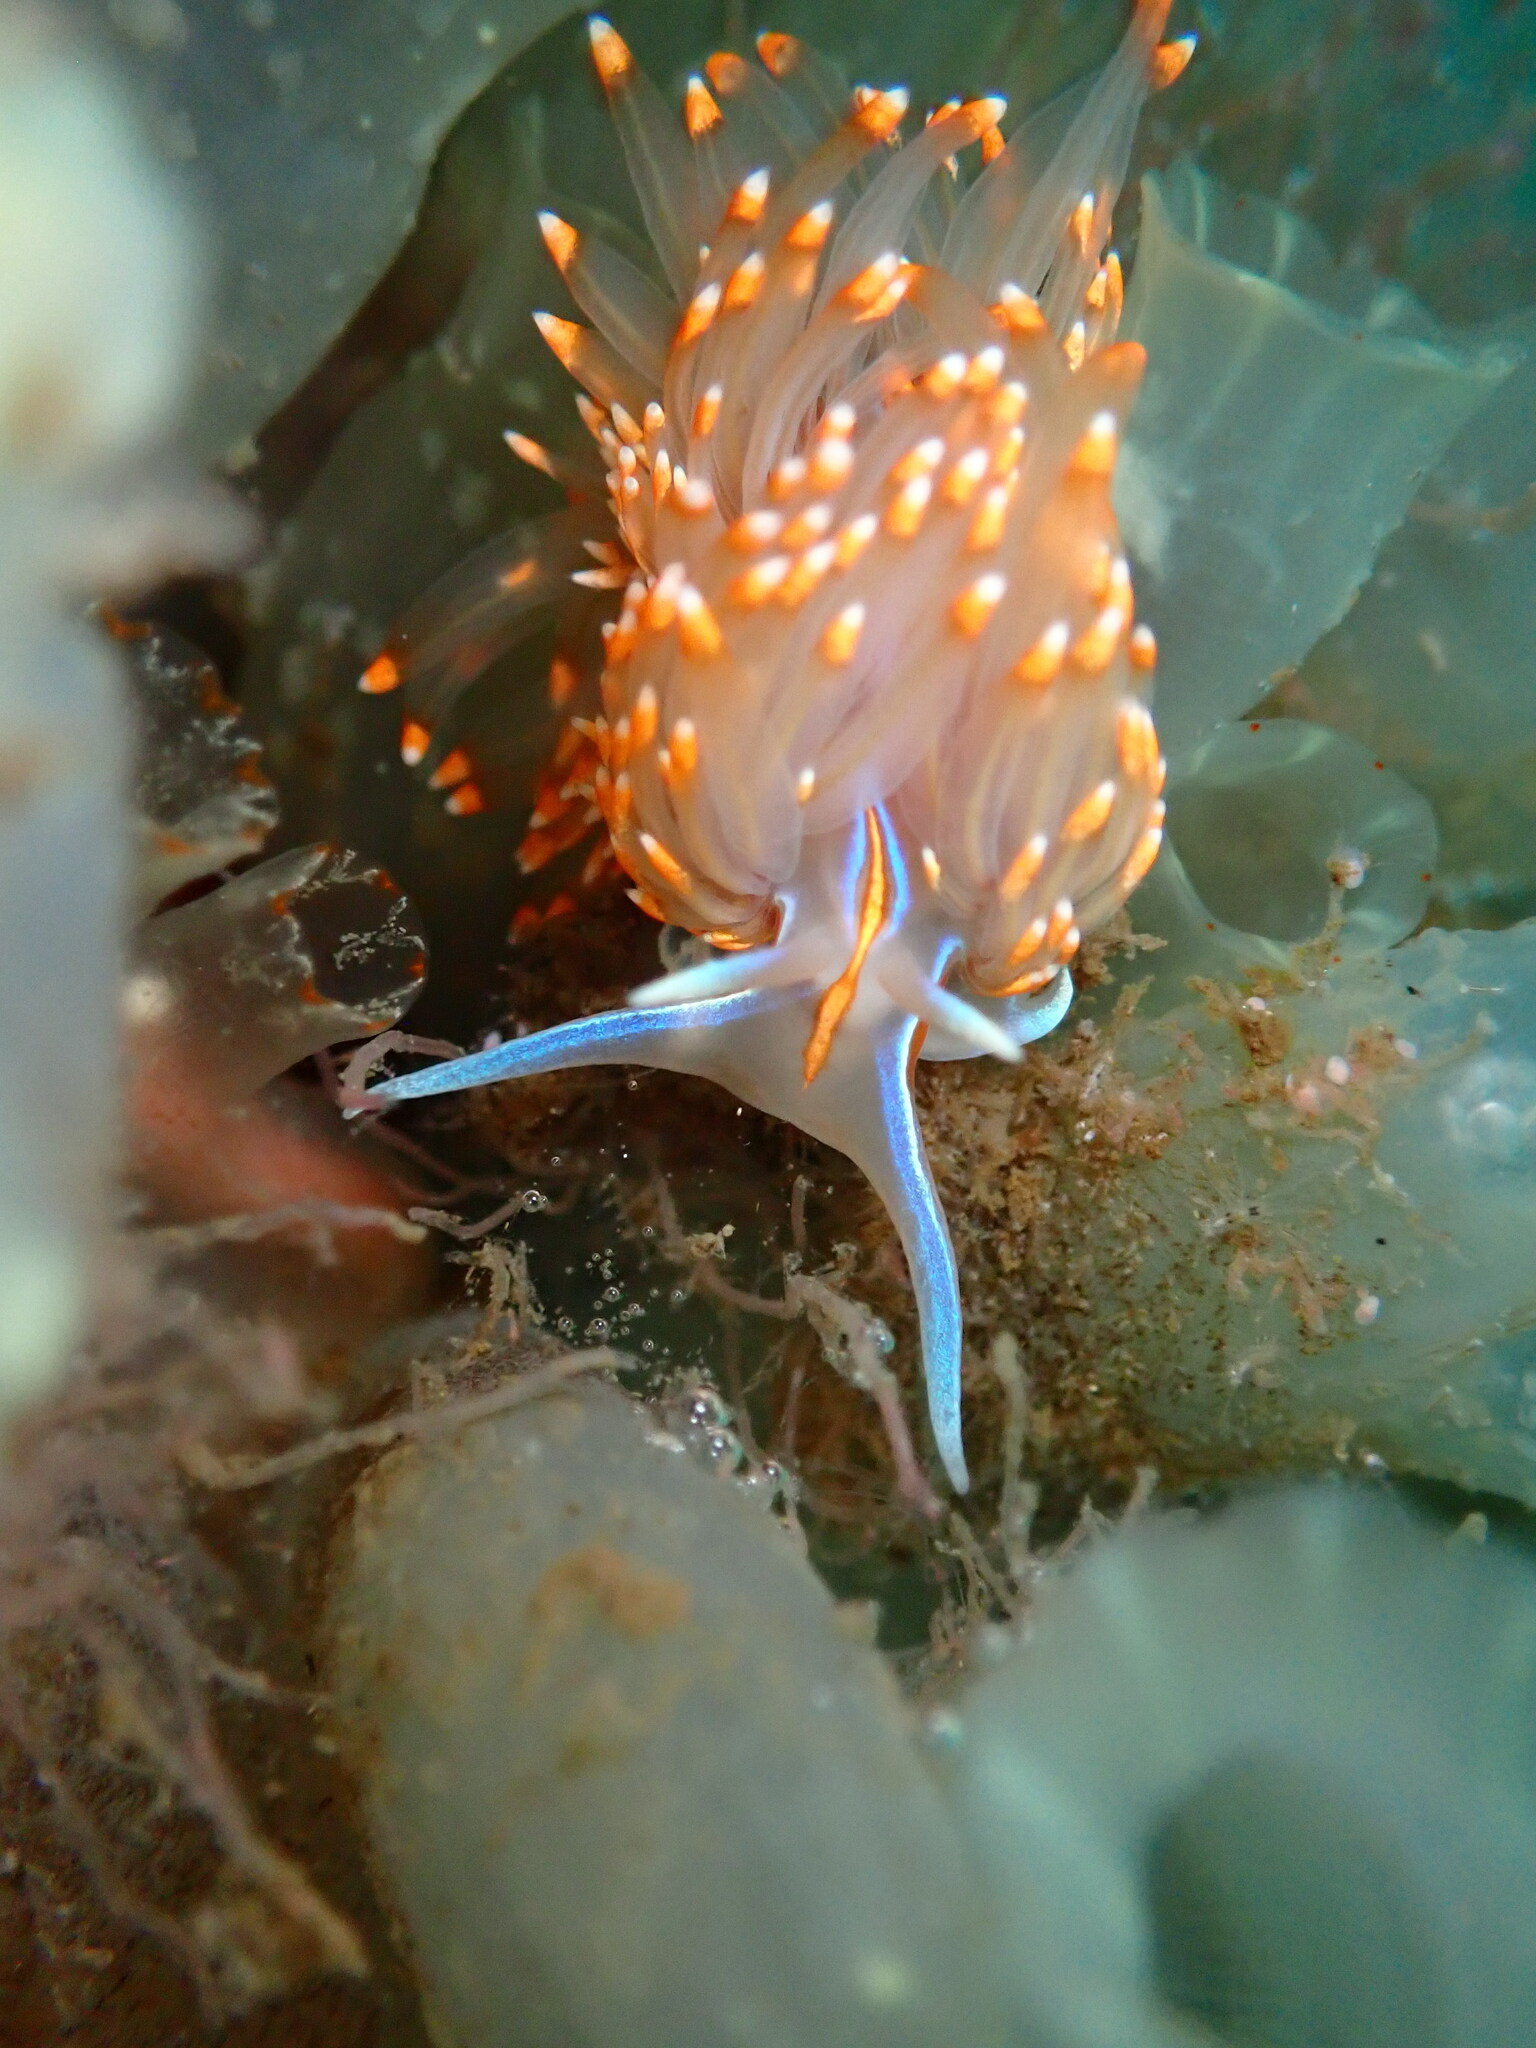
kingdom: Animalia
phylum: Mollusca
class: Gastropoda
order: Nudibranchia
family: Myrrhinidae
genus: Hermissenda
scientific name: Hermissenda opalescens
